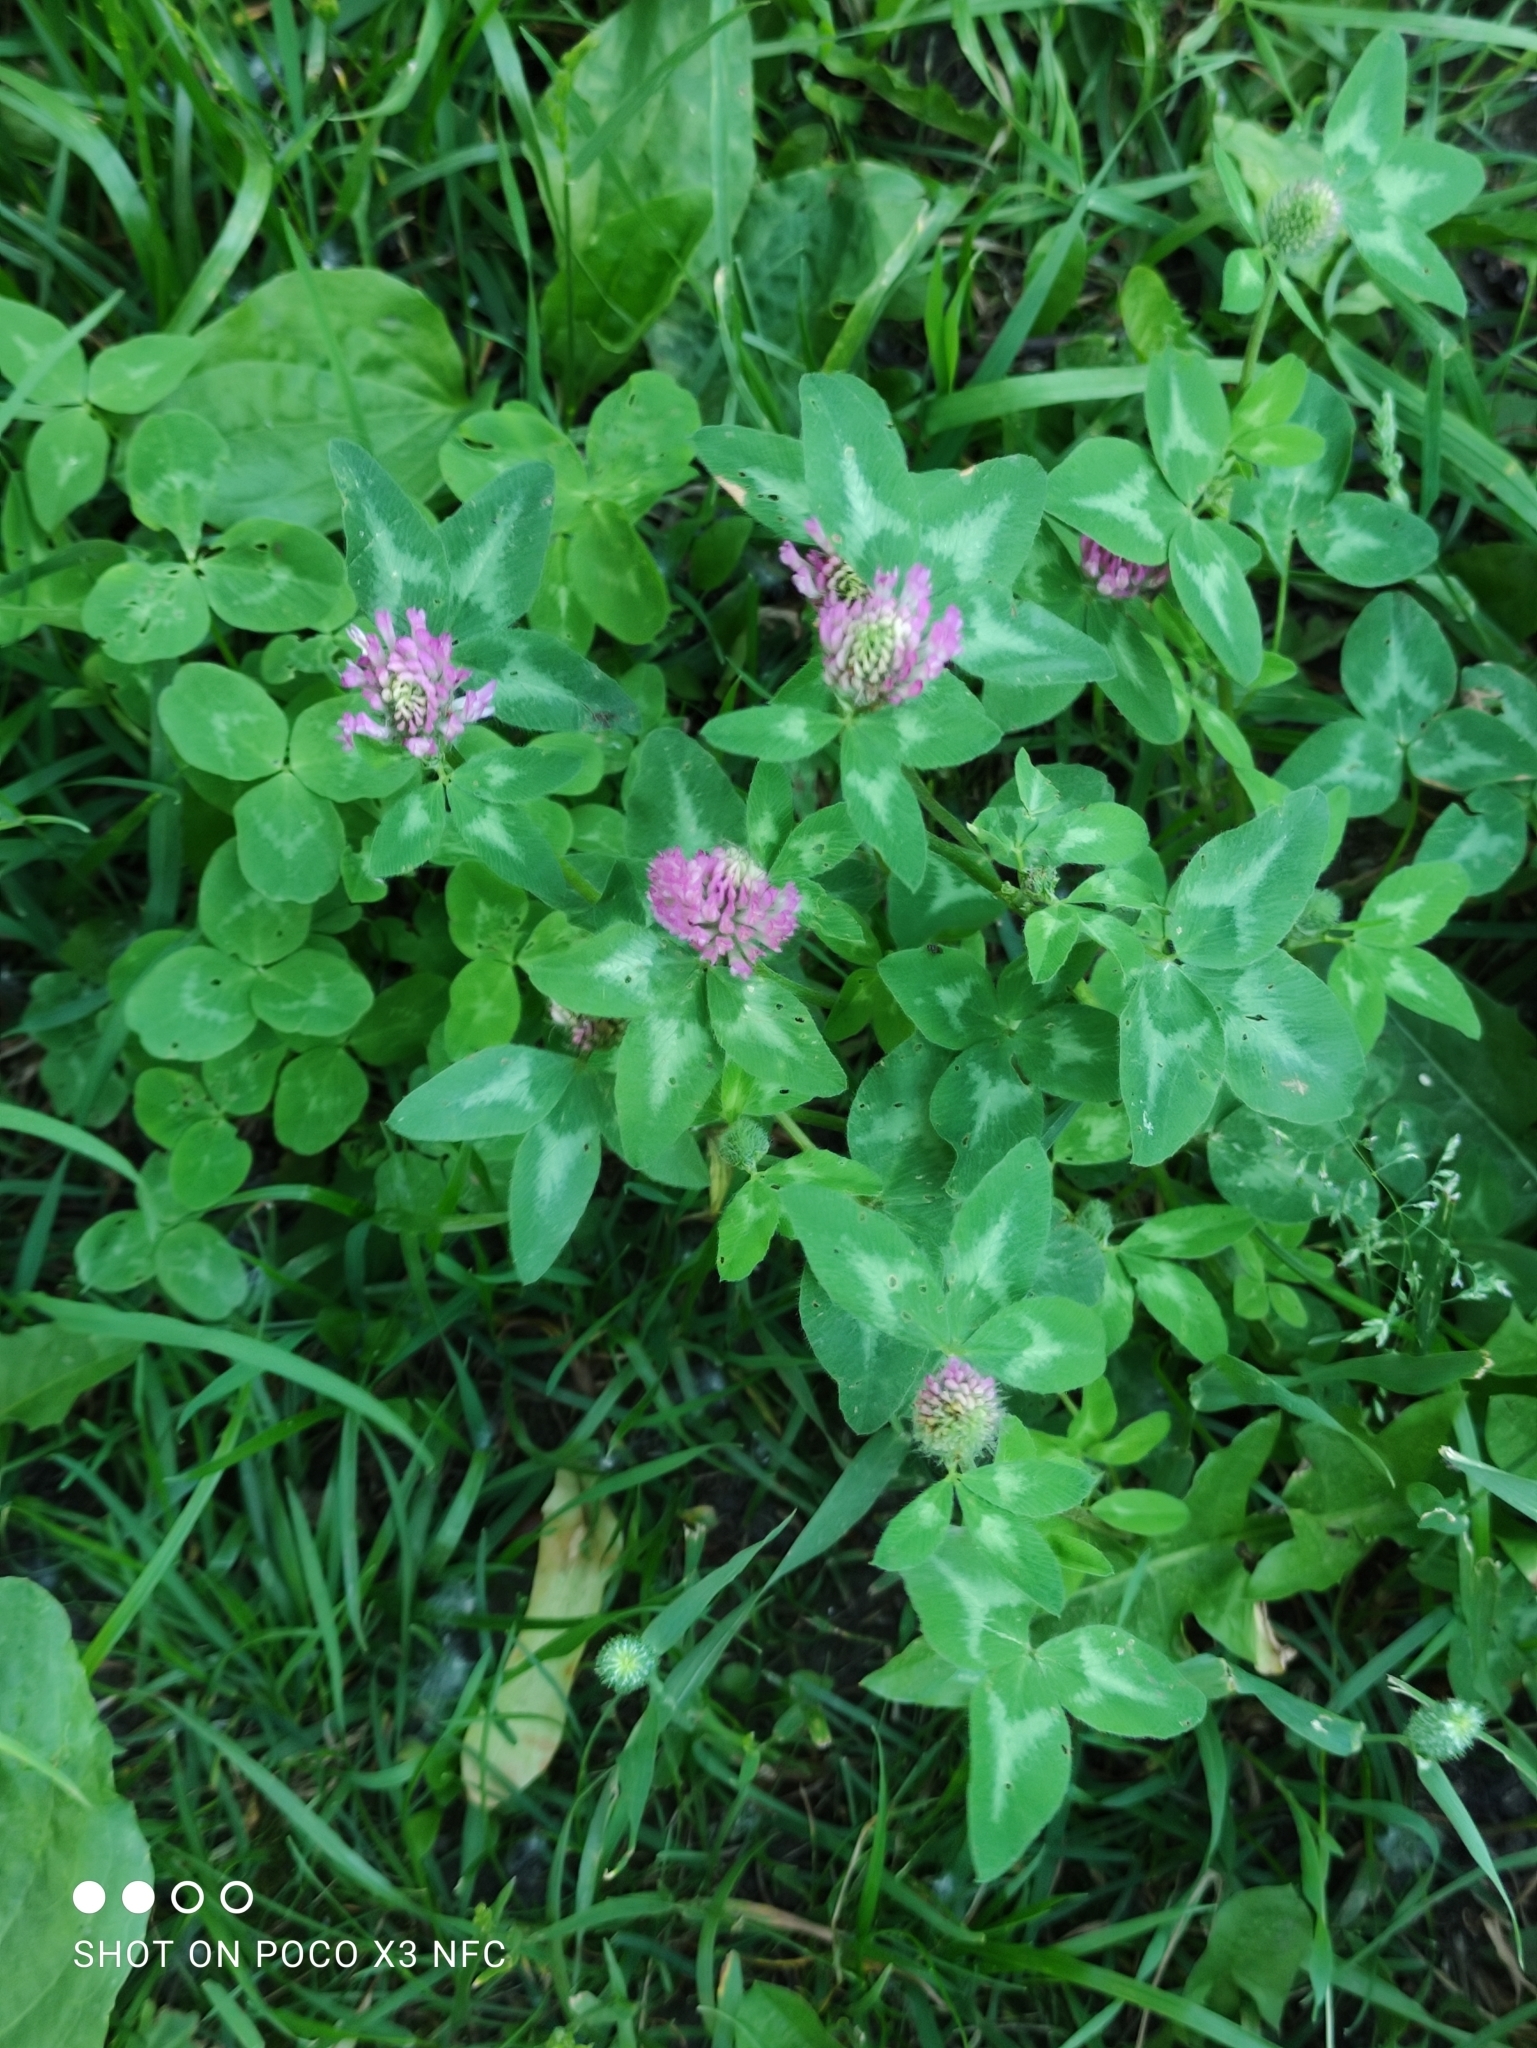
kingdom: Plantae
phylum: Tracheophyta
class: Magnoliopsida
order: Fabales
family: Fabaceae
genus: Trifolium
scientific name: Trifolium pratense
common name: Red clover
